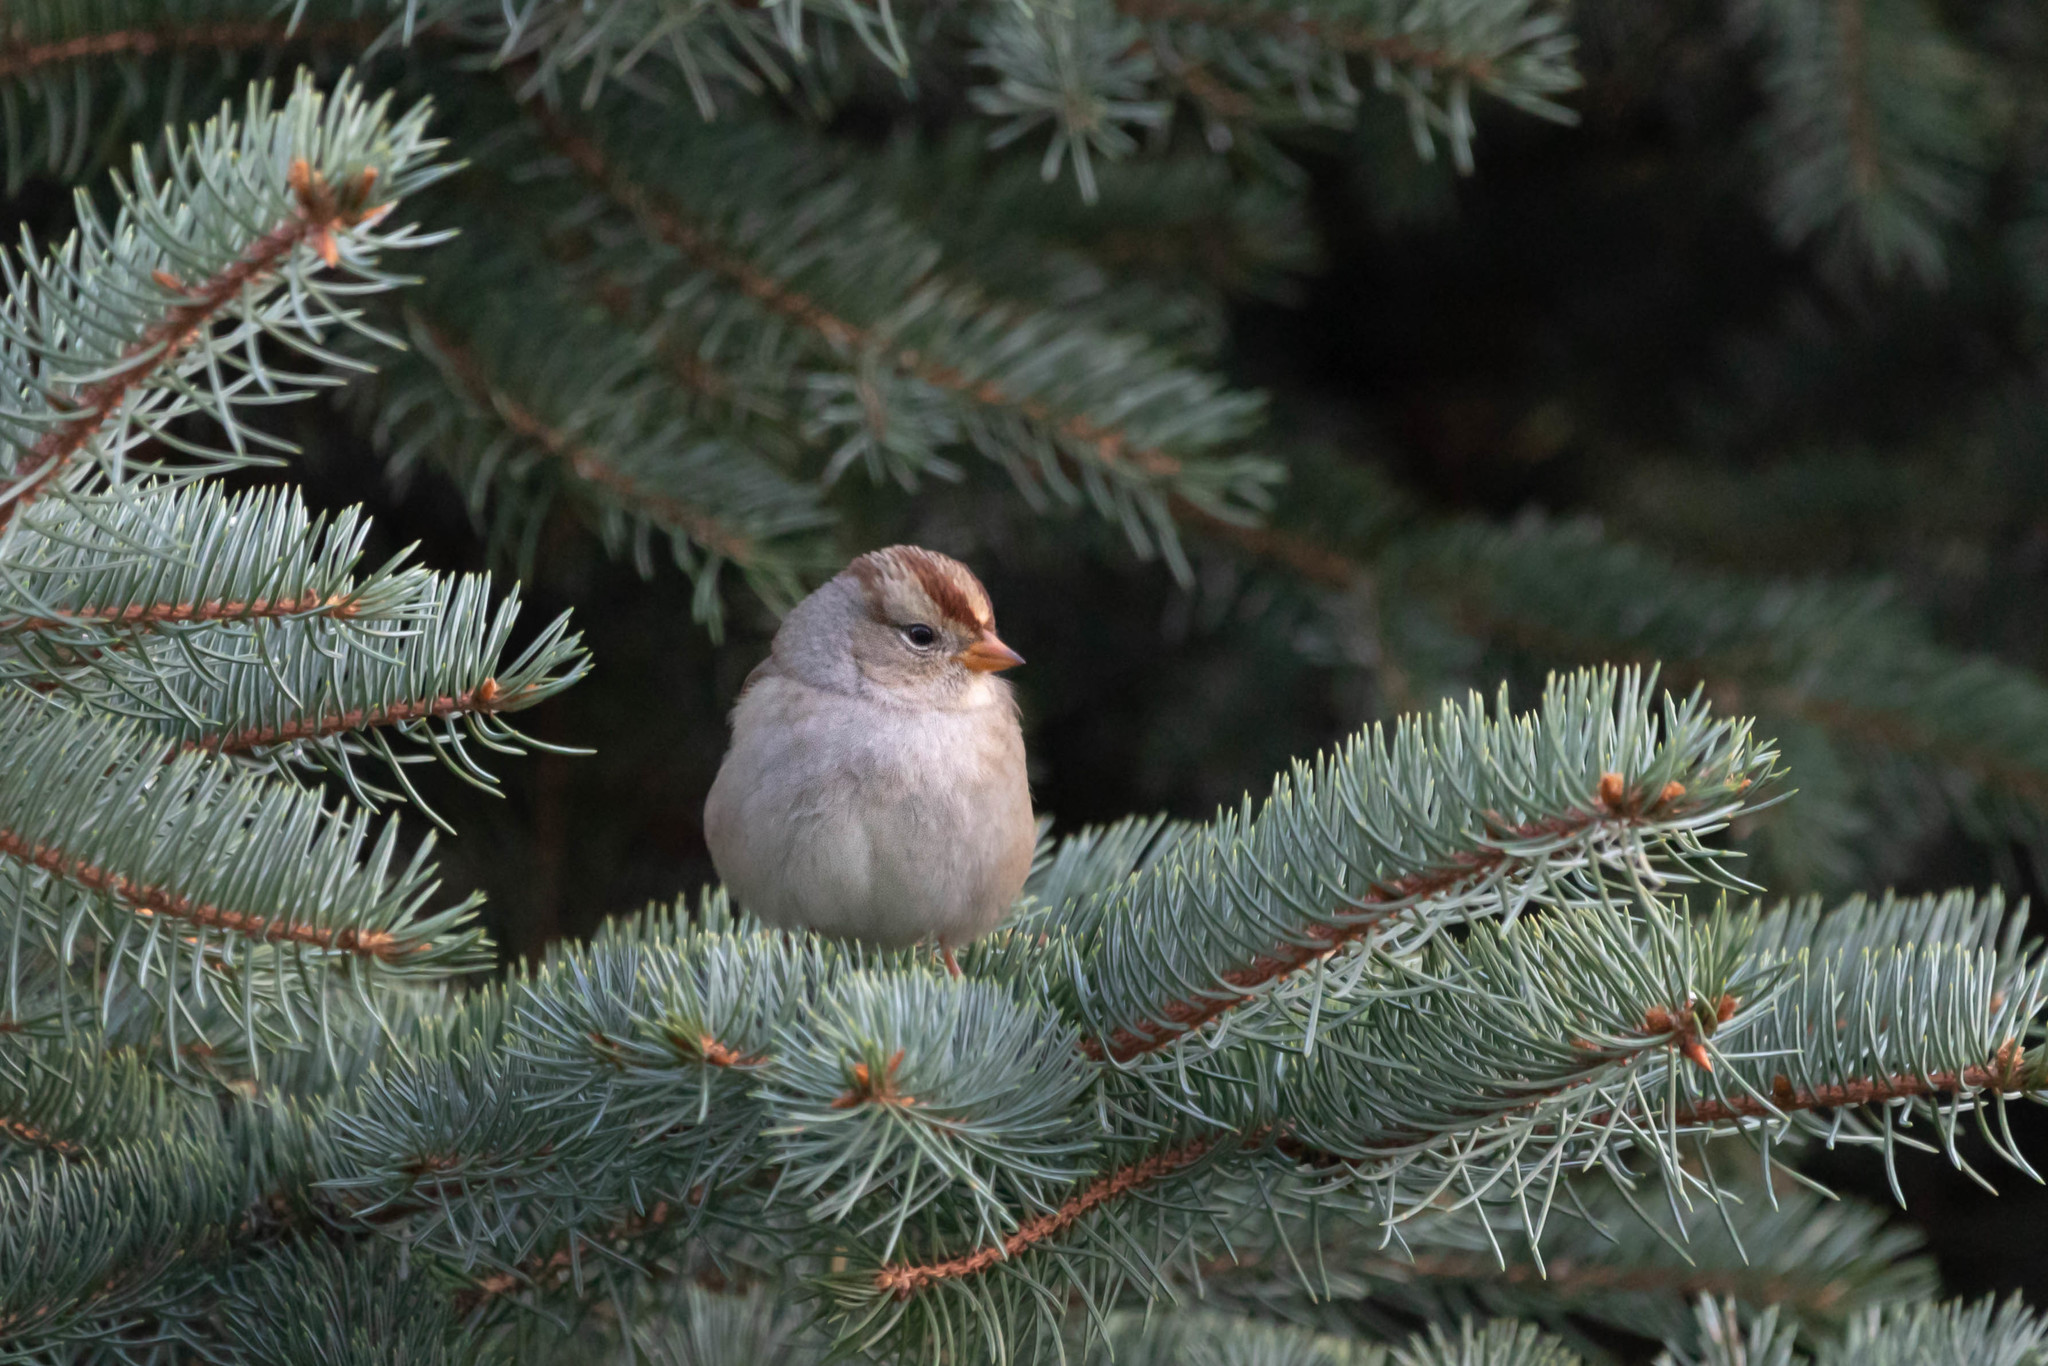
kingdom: Animalia
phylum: Chordata
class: Aves
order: Passeriformes
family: Passerellidae
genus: Zonotrichia
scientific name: Zonotrichia leucophrys
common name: White-crowned sparrow
